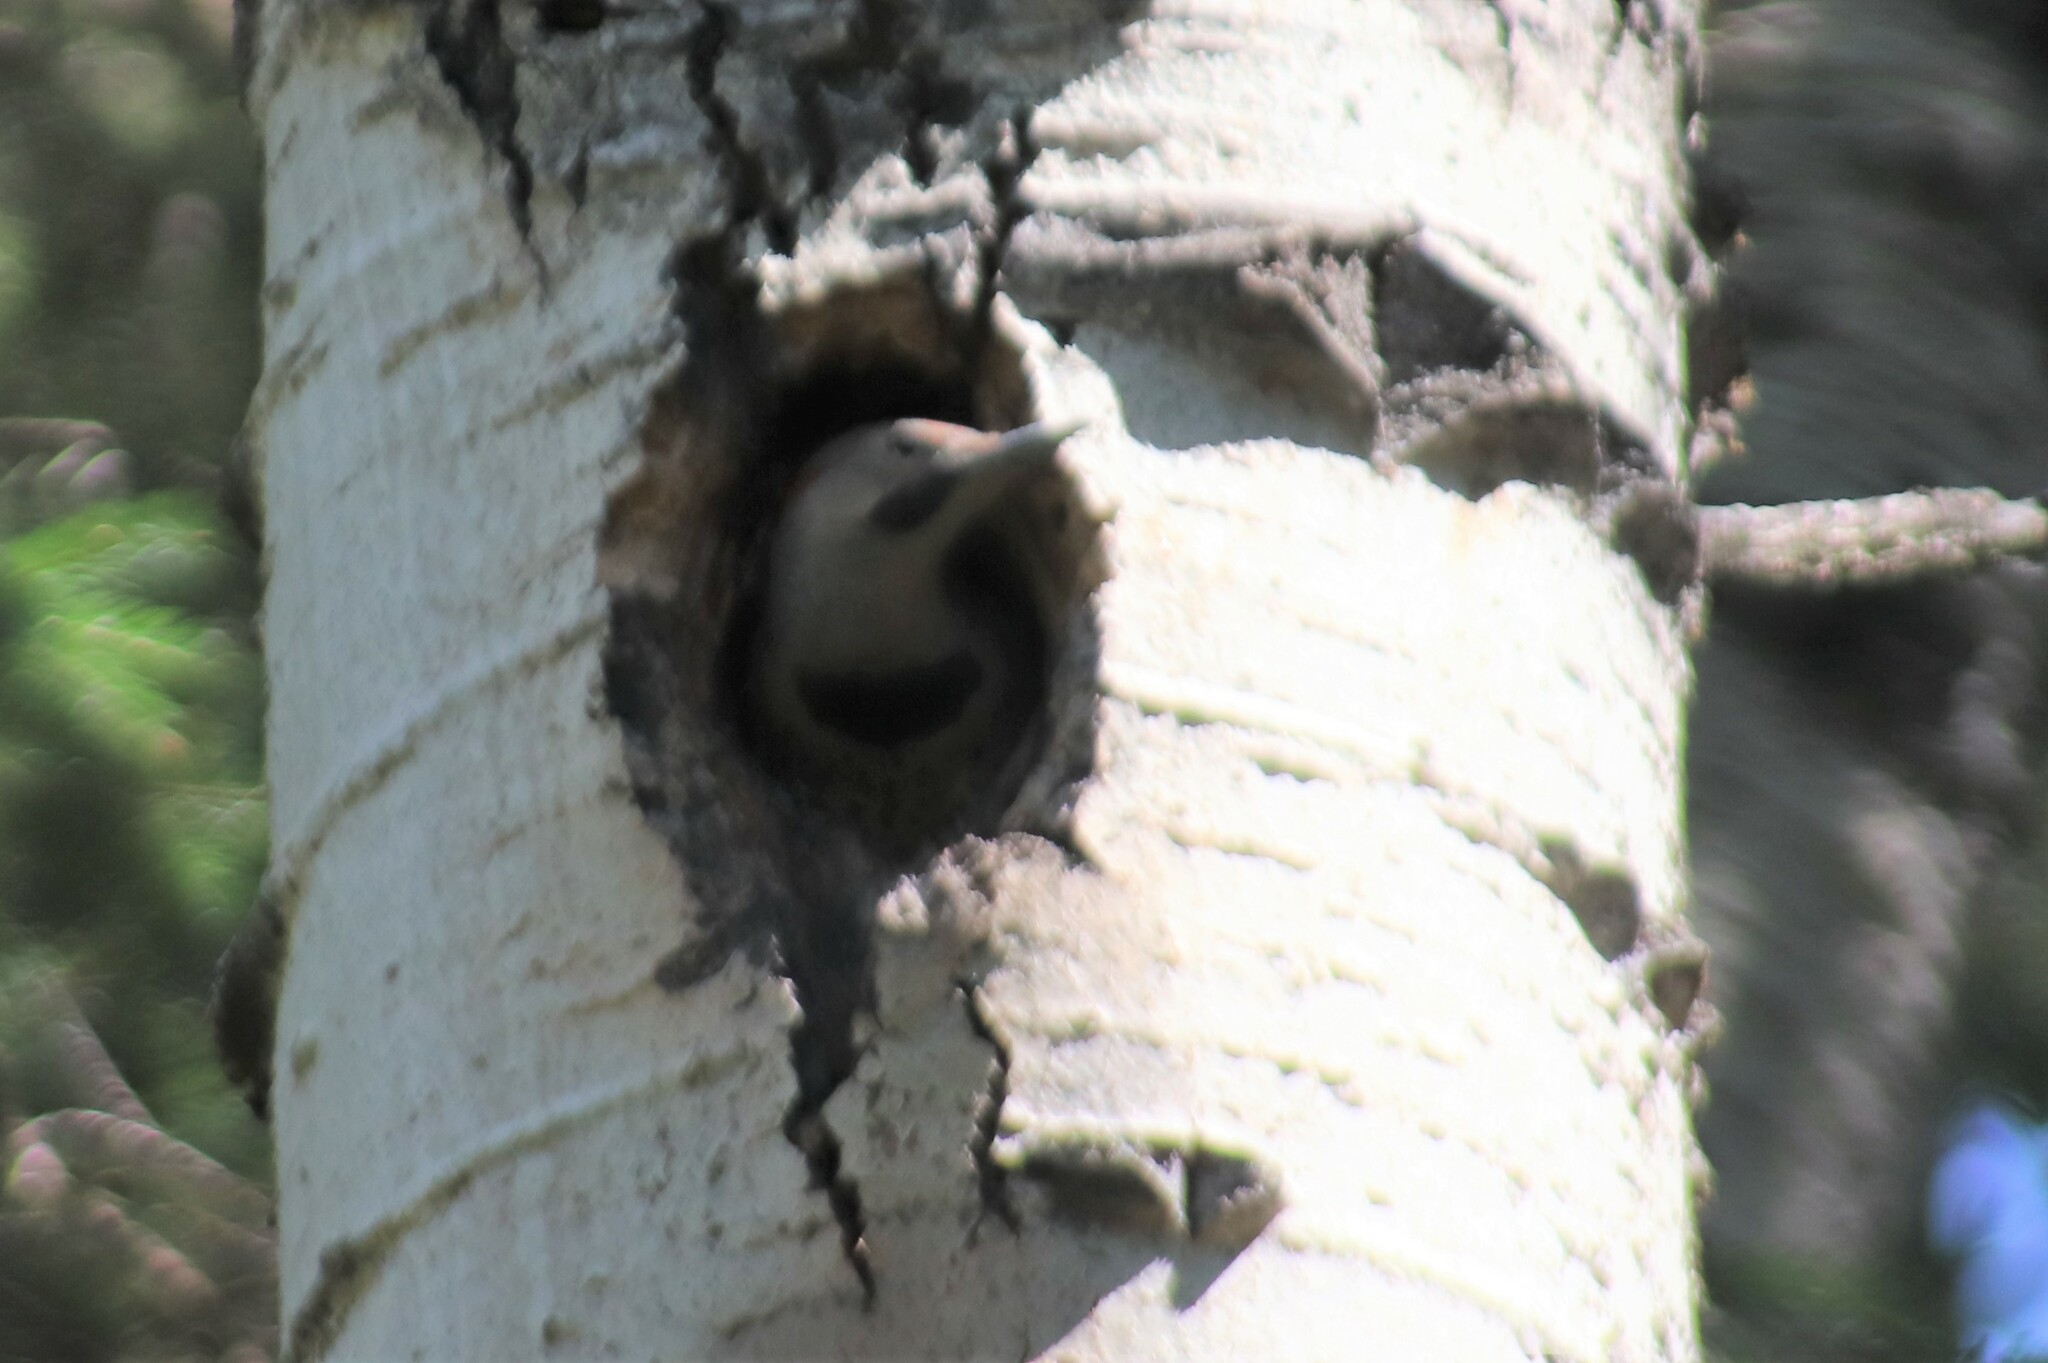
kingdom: Animalia
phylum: Chordata
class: Aves
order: Piciformes
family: Picidae
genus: Colaptes
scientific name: Colaptes auratus
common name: Northern flicker
